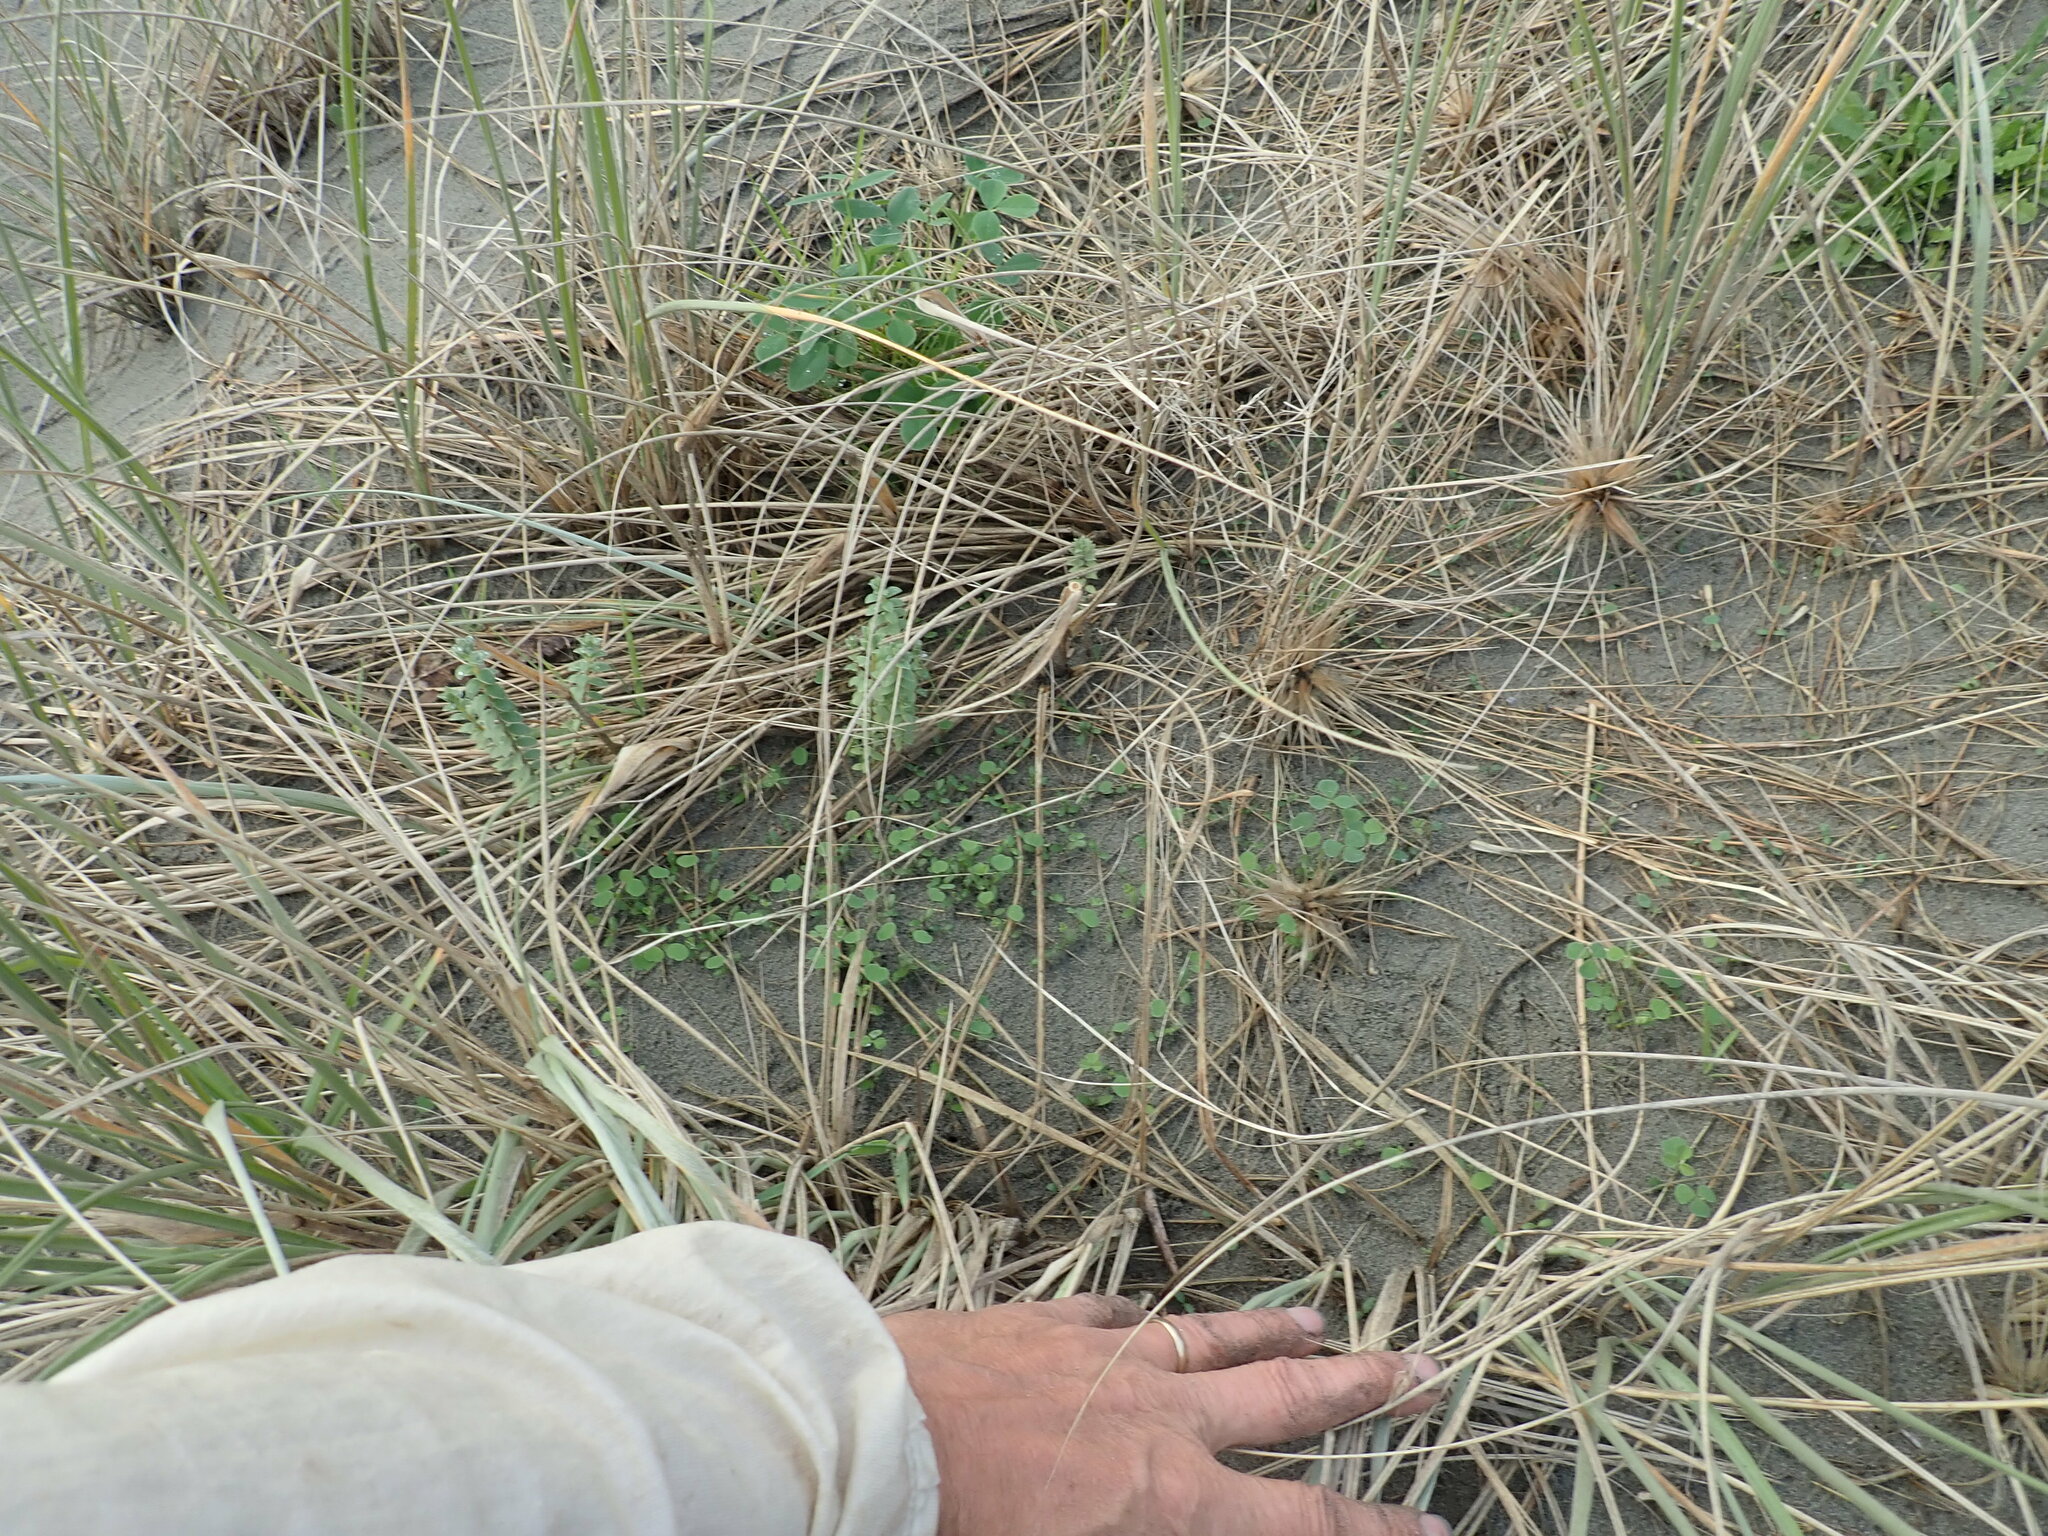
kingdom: Plantae
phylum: Tracheophyta
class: Magnoliopsida
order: Fabales
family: Fabaceae
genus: Melilotus
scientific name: Melilotus indicus
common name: Small melilot
